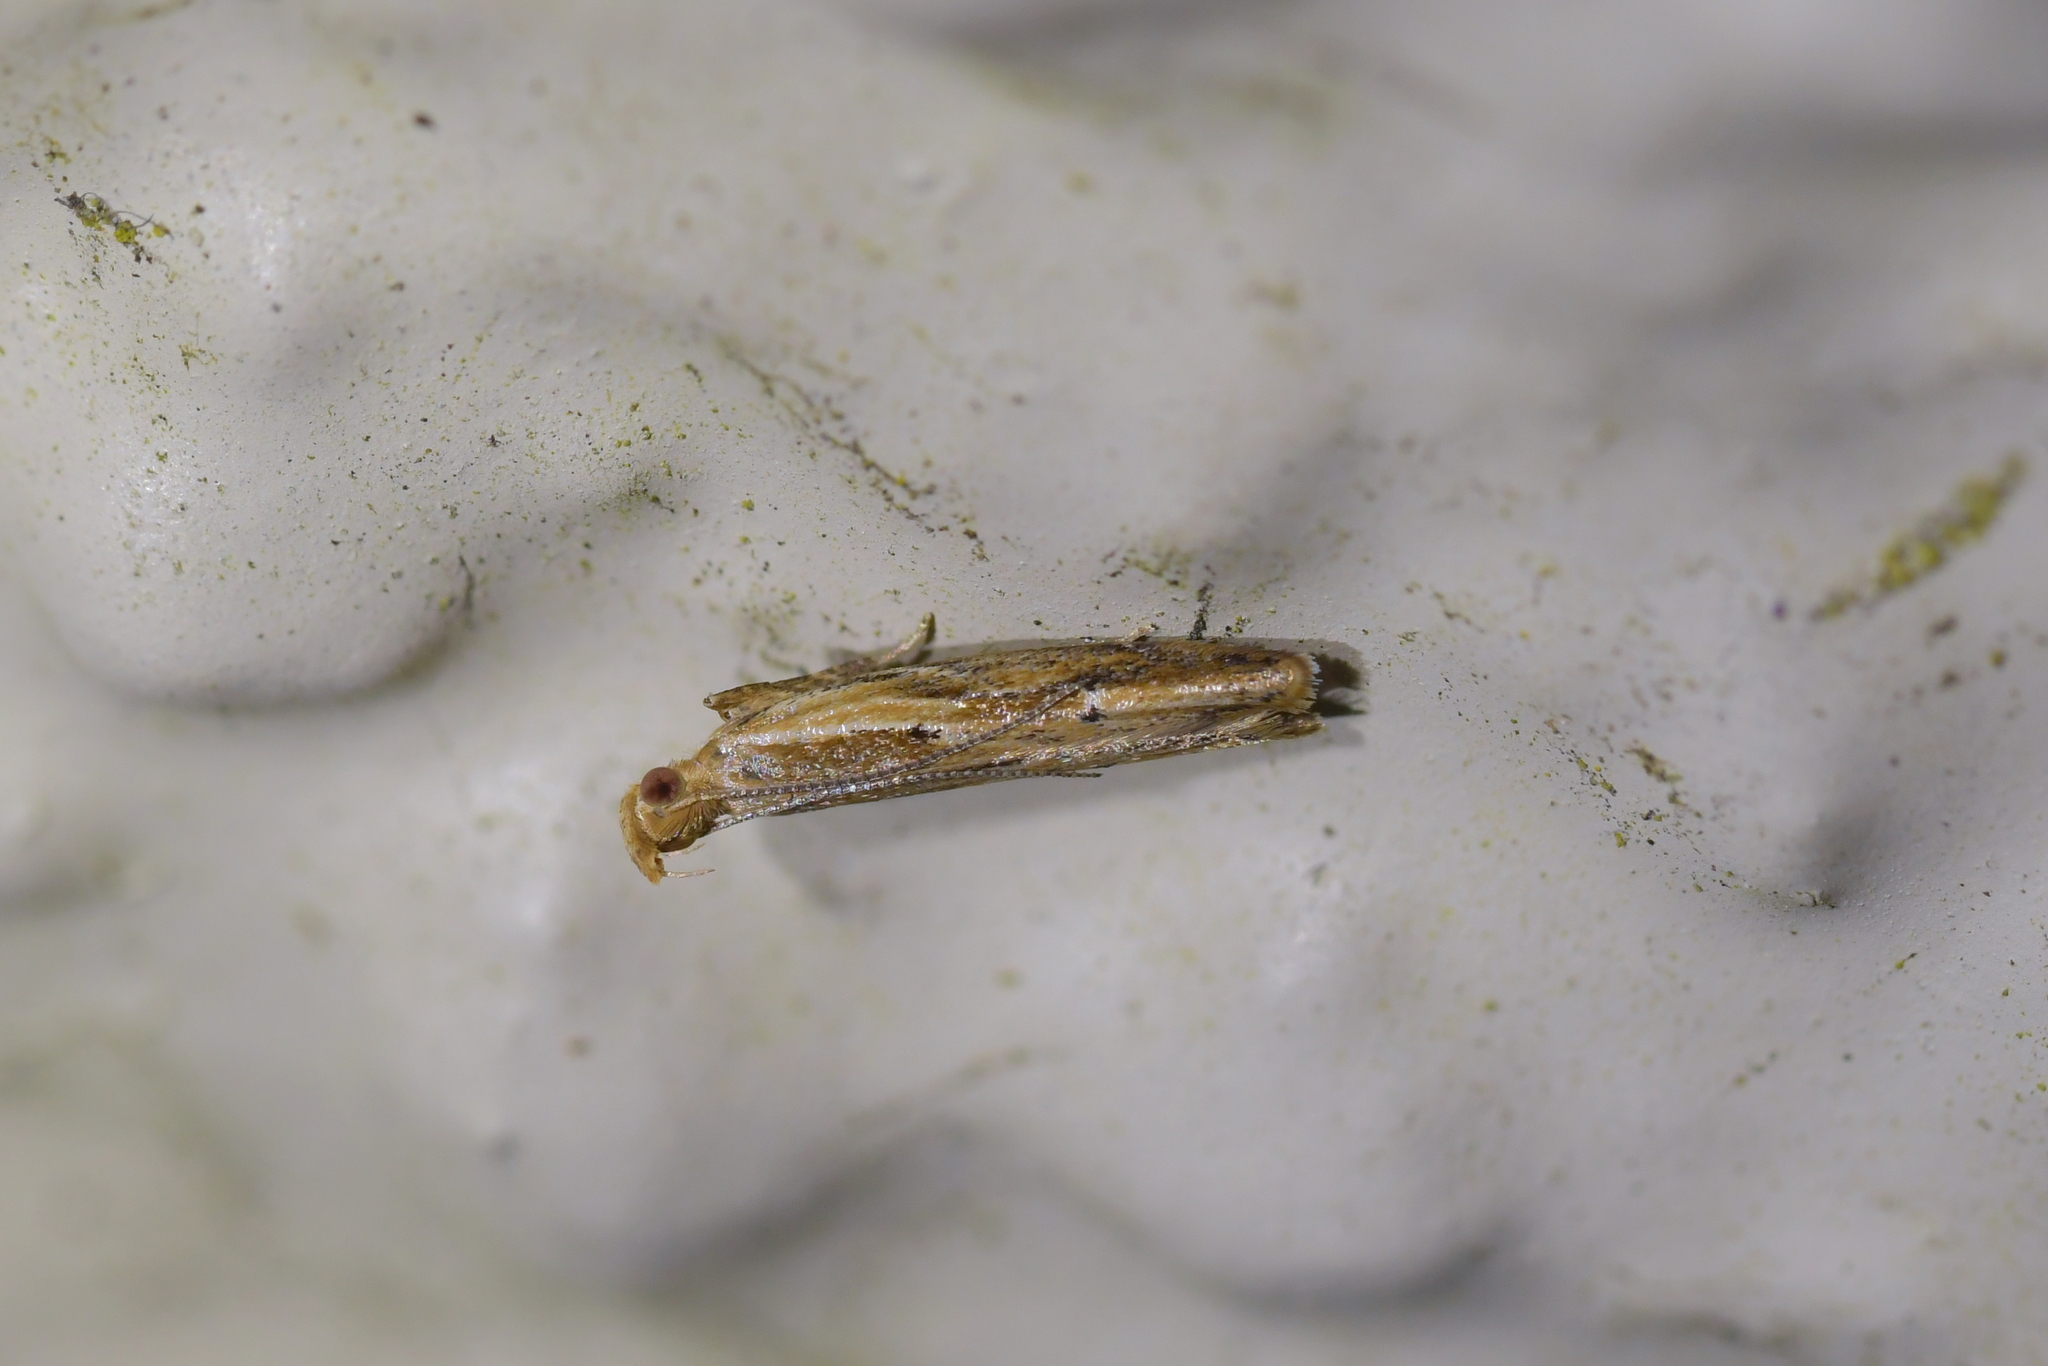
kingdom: Animalia
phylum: Arthropoda
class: Insecta
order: Lepidoptera
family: Depressariidae
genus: Eutorna
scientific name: Eutorna symmorpha
